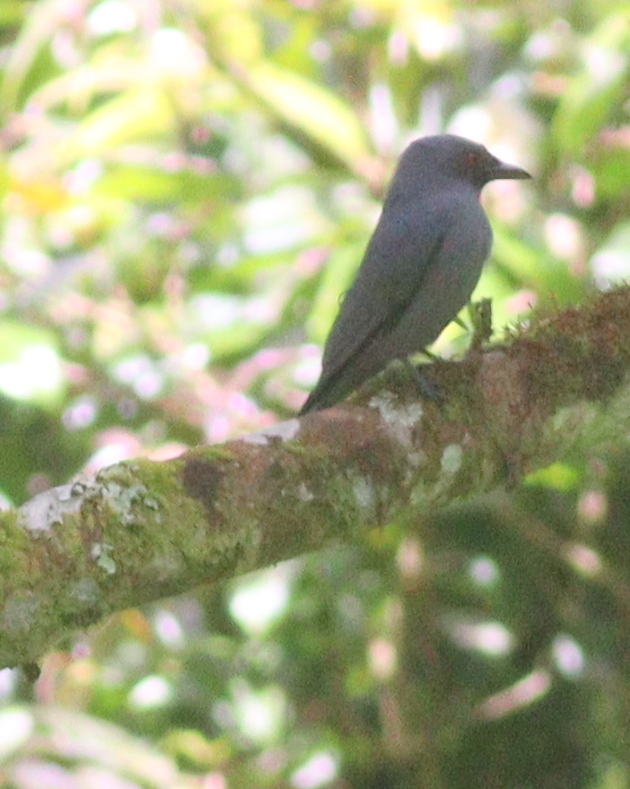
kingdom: Animalia
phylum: Chordata
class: Aves
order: Passeriformes
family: Dicruridae
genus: Dicrurus
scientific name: Dicrurus leucophaeus
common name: Ashy drongo
